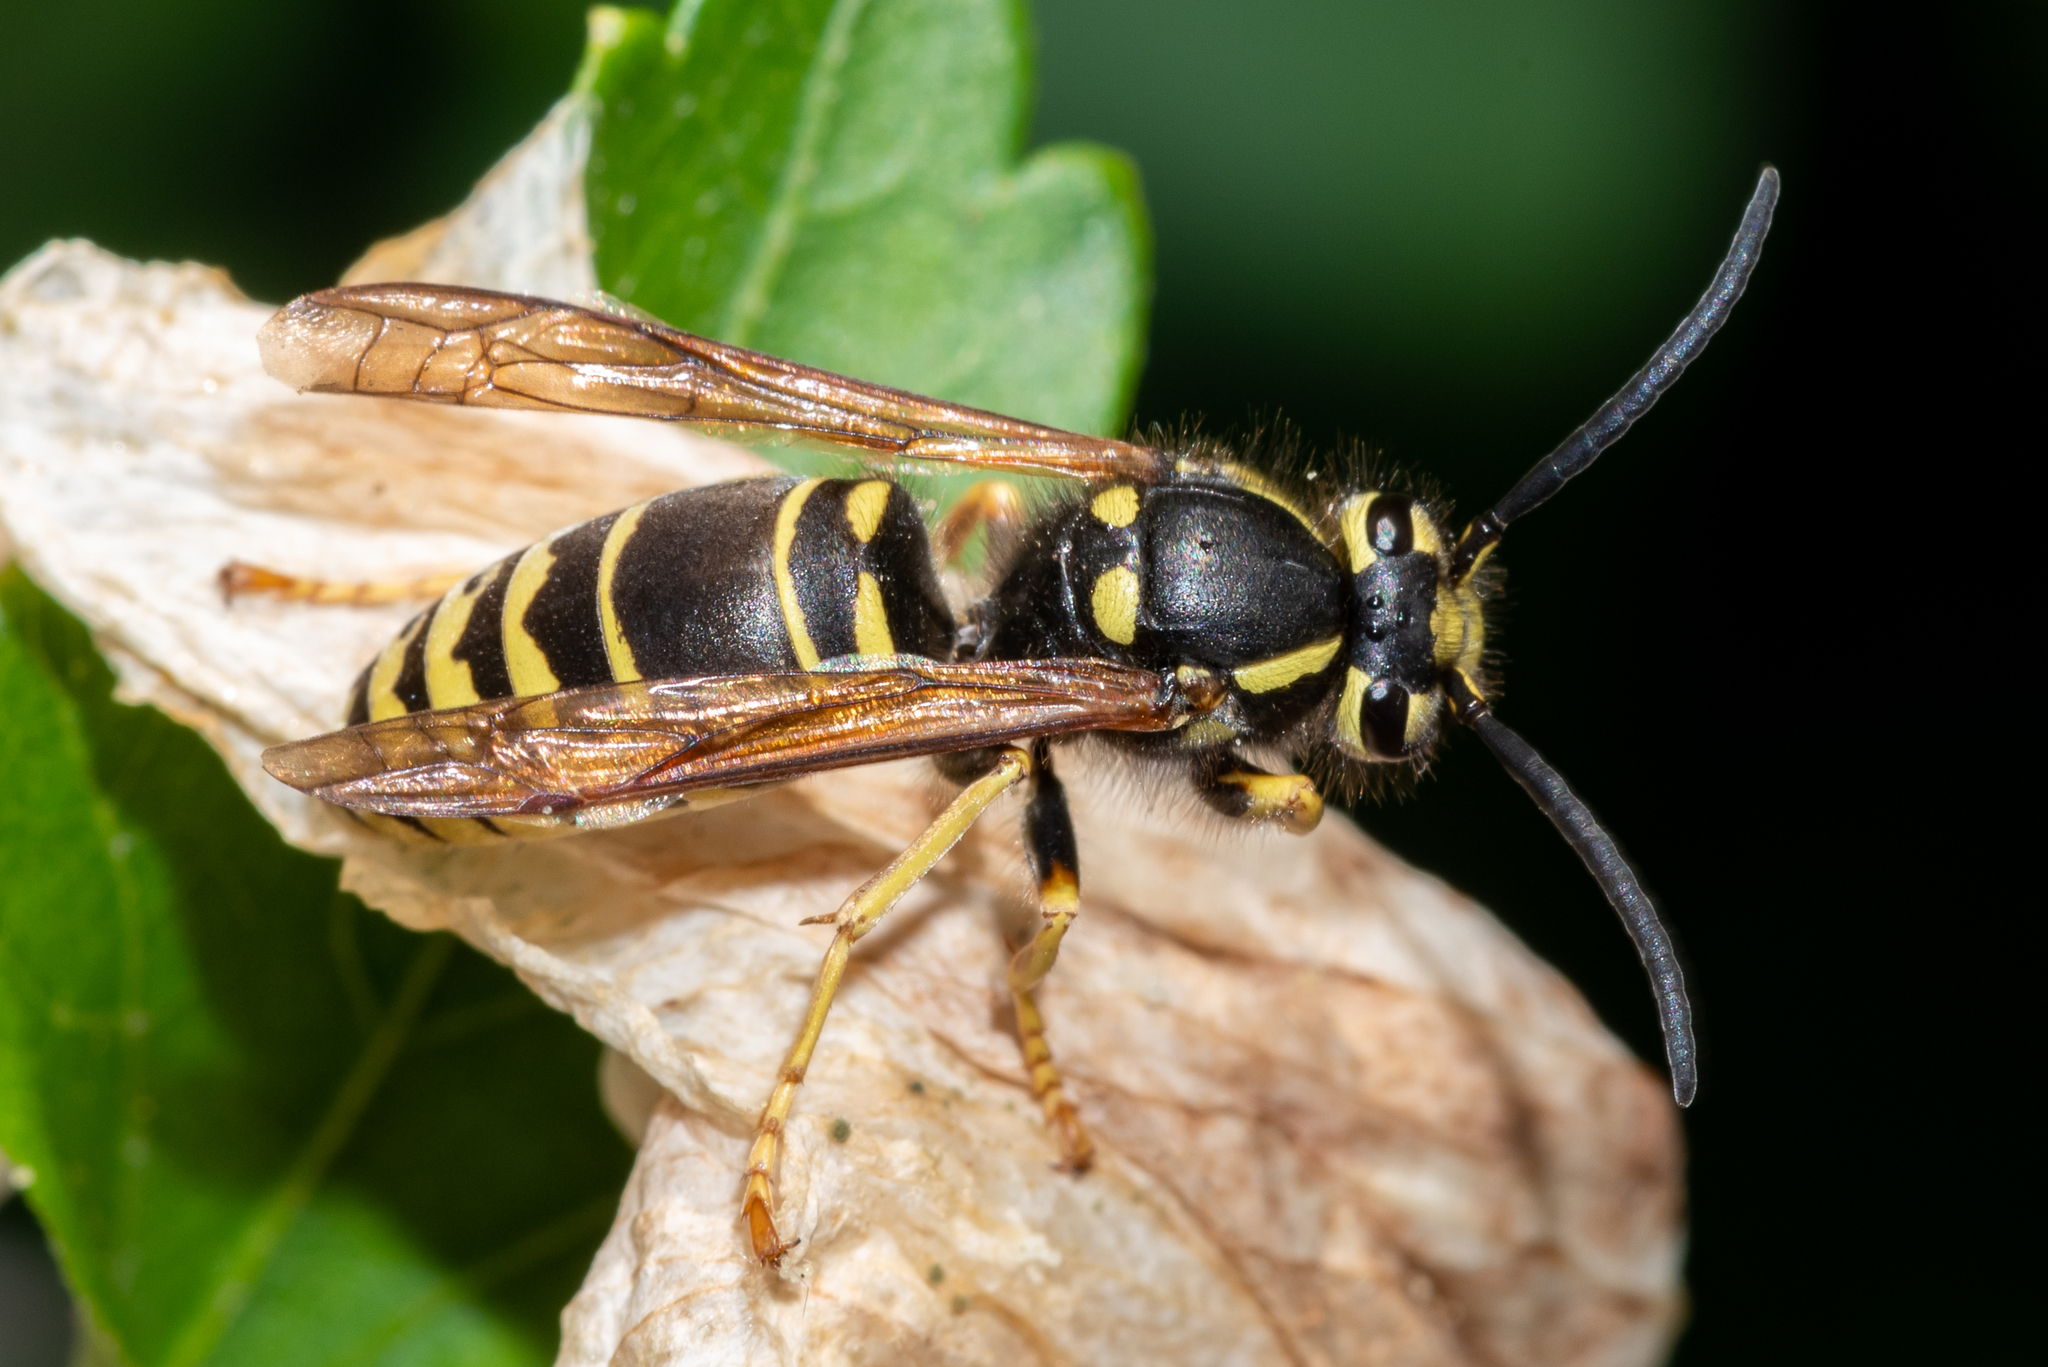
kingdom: Animalia
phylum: Arthropoda
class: Insecta
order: Hymenoptera
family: Vespidae
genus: Vespula
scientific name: Vespula vidua
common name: Widow yellowjacket
